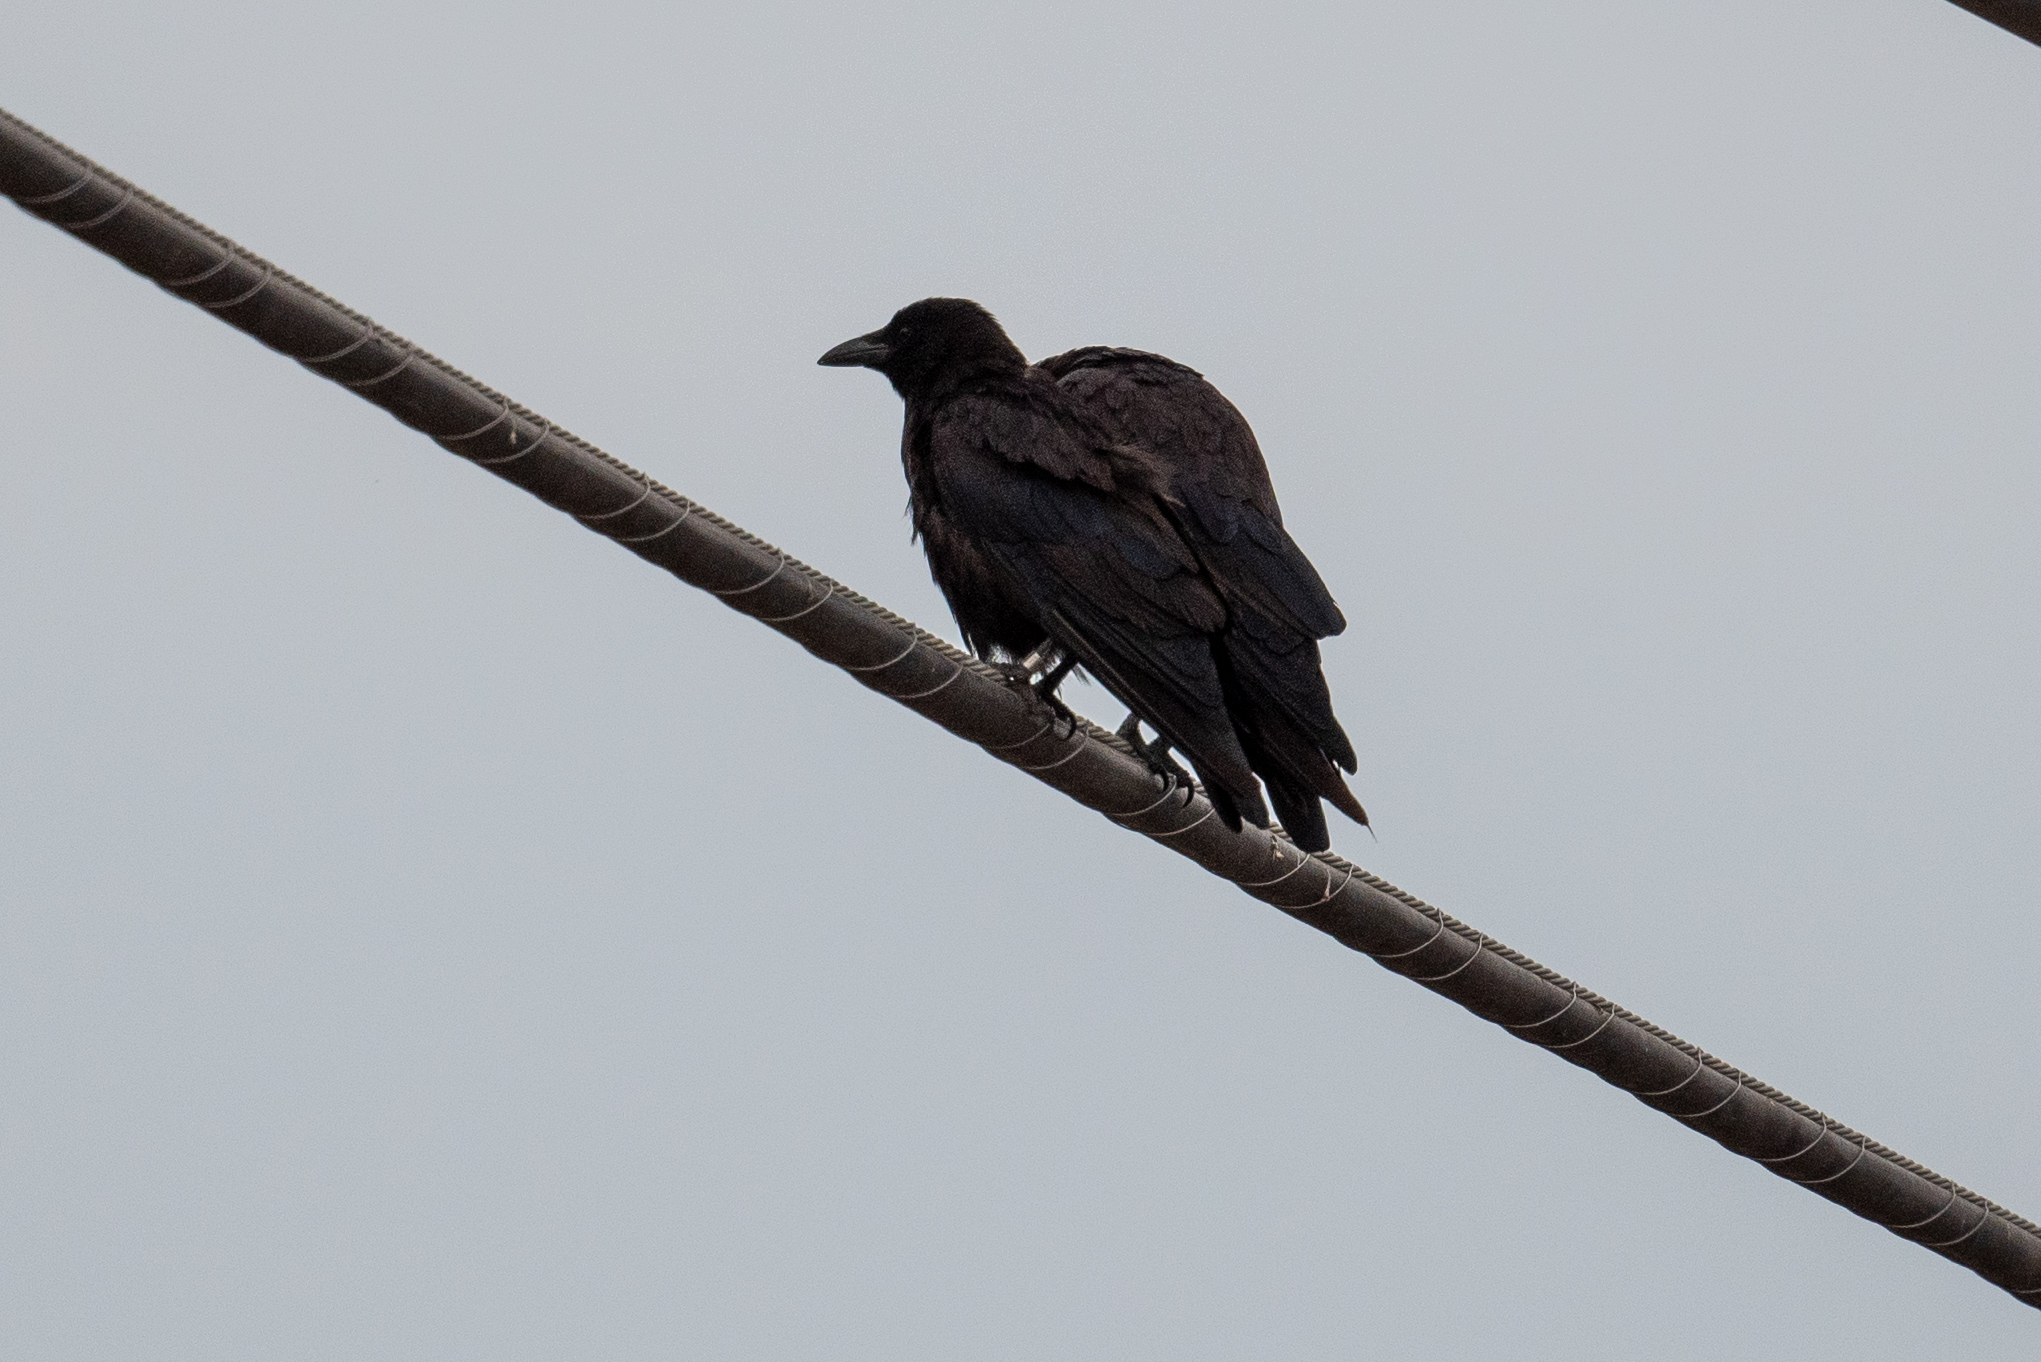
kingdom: Animalia
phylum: Chordata
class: Aves
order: Passeriformes
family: Corvidae
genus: Corvus
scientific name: Corvus brachyrhynchos
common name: American crow
